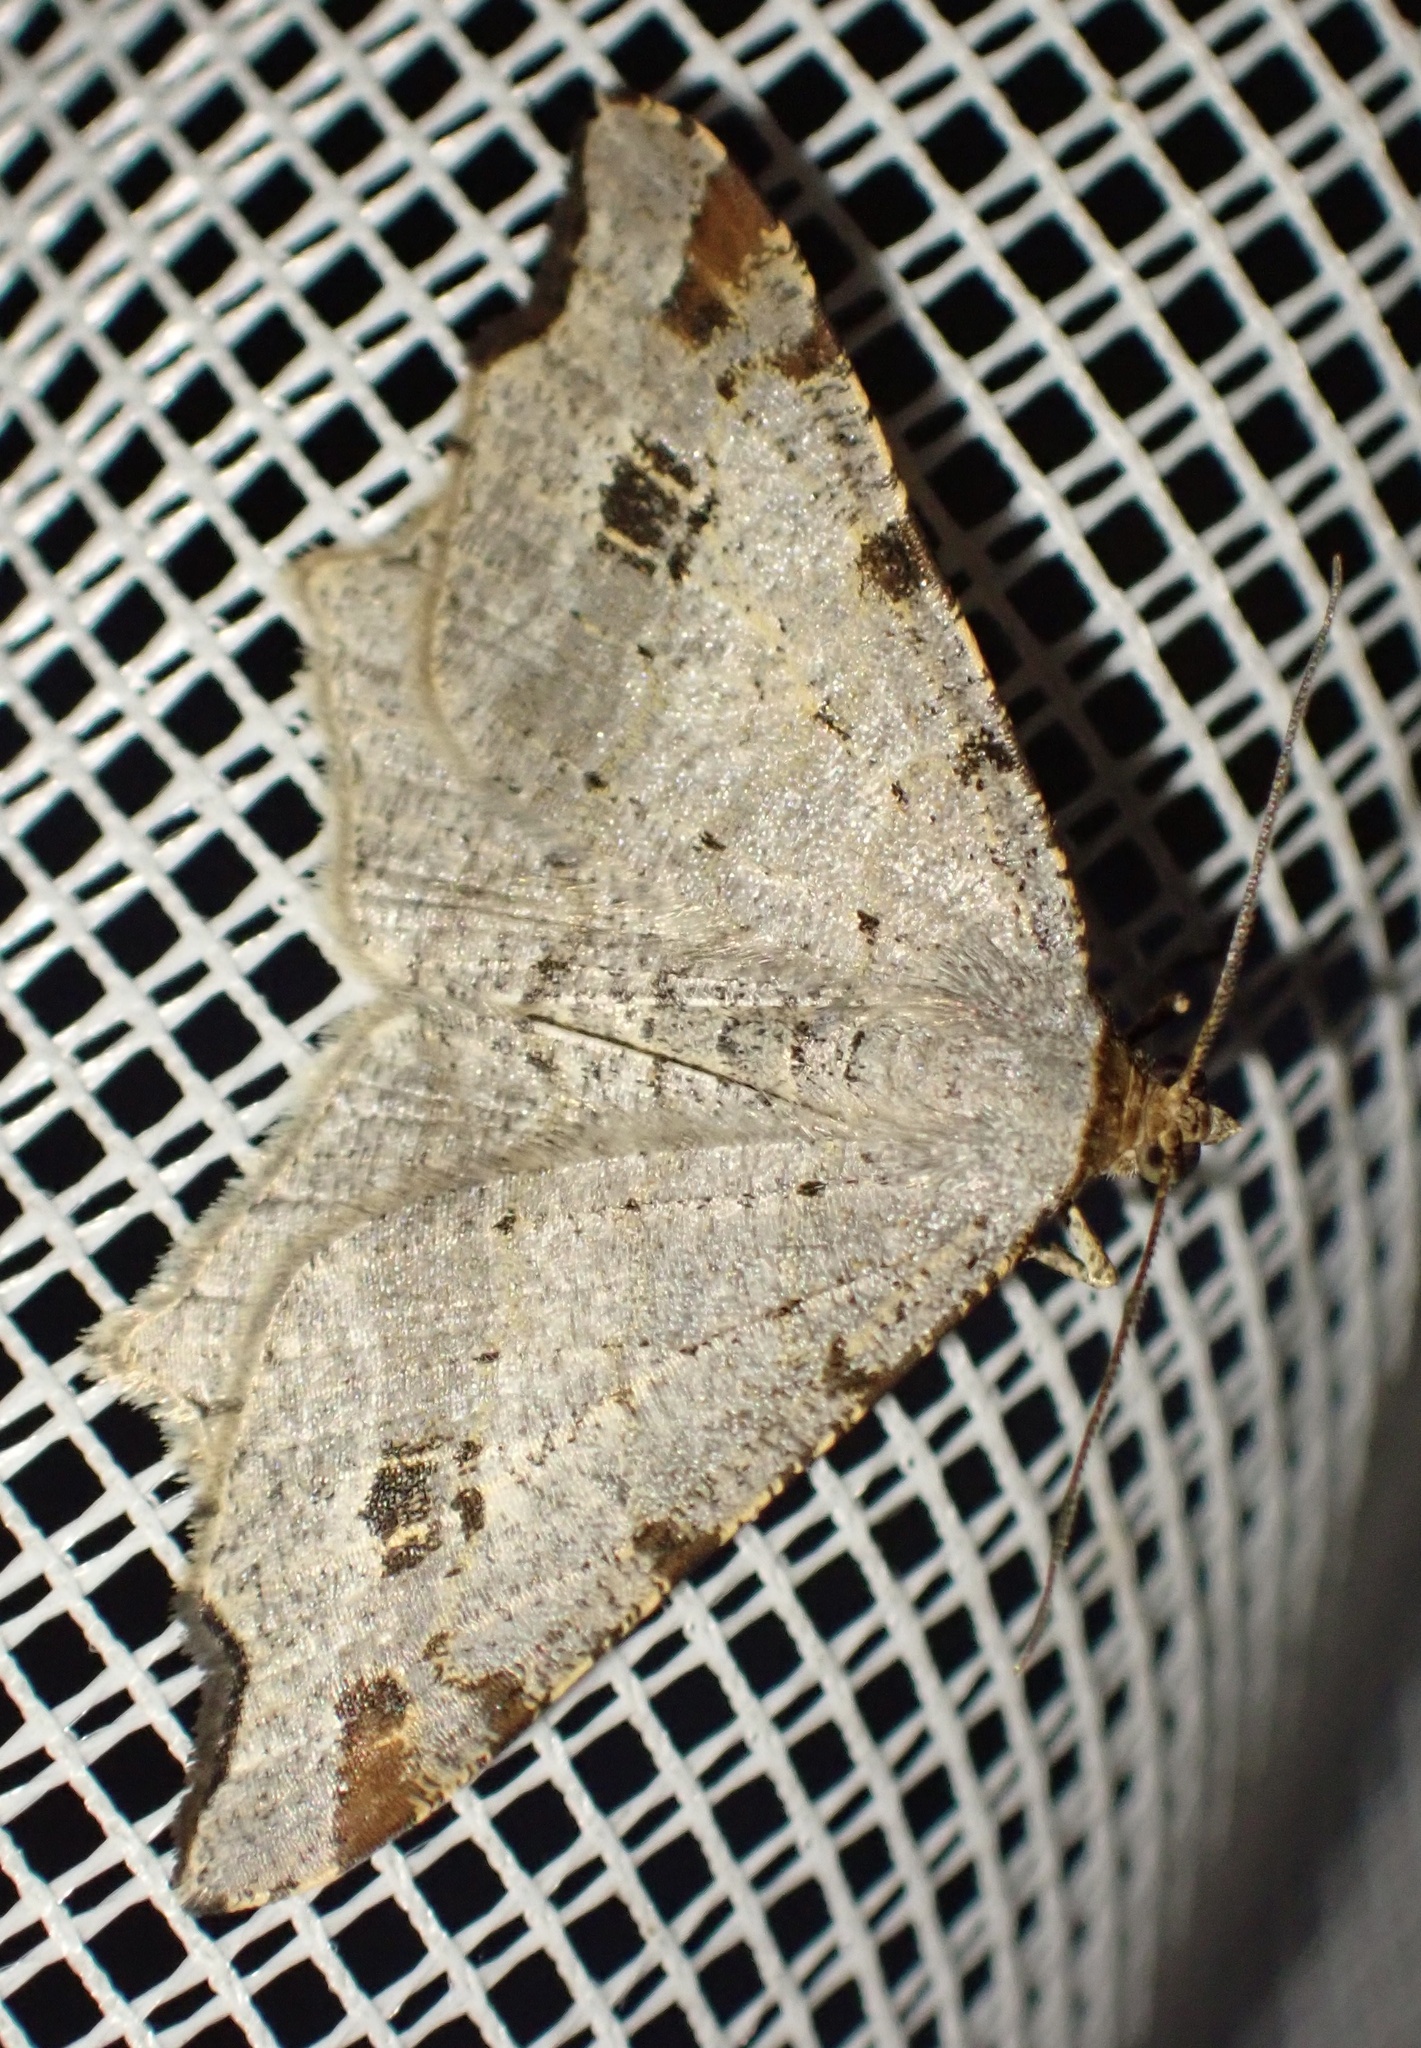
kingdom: Animalia
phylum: Arthropoda
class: Insecta
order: Lepidoptera
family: Geometridae
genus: Macaria
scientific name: Macaria alternata
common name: Sharp-angled peacock
